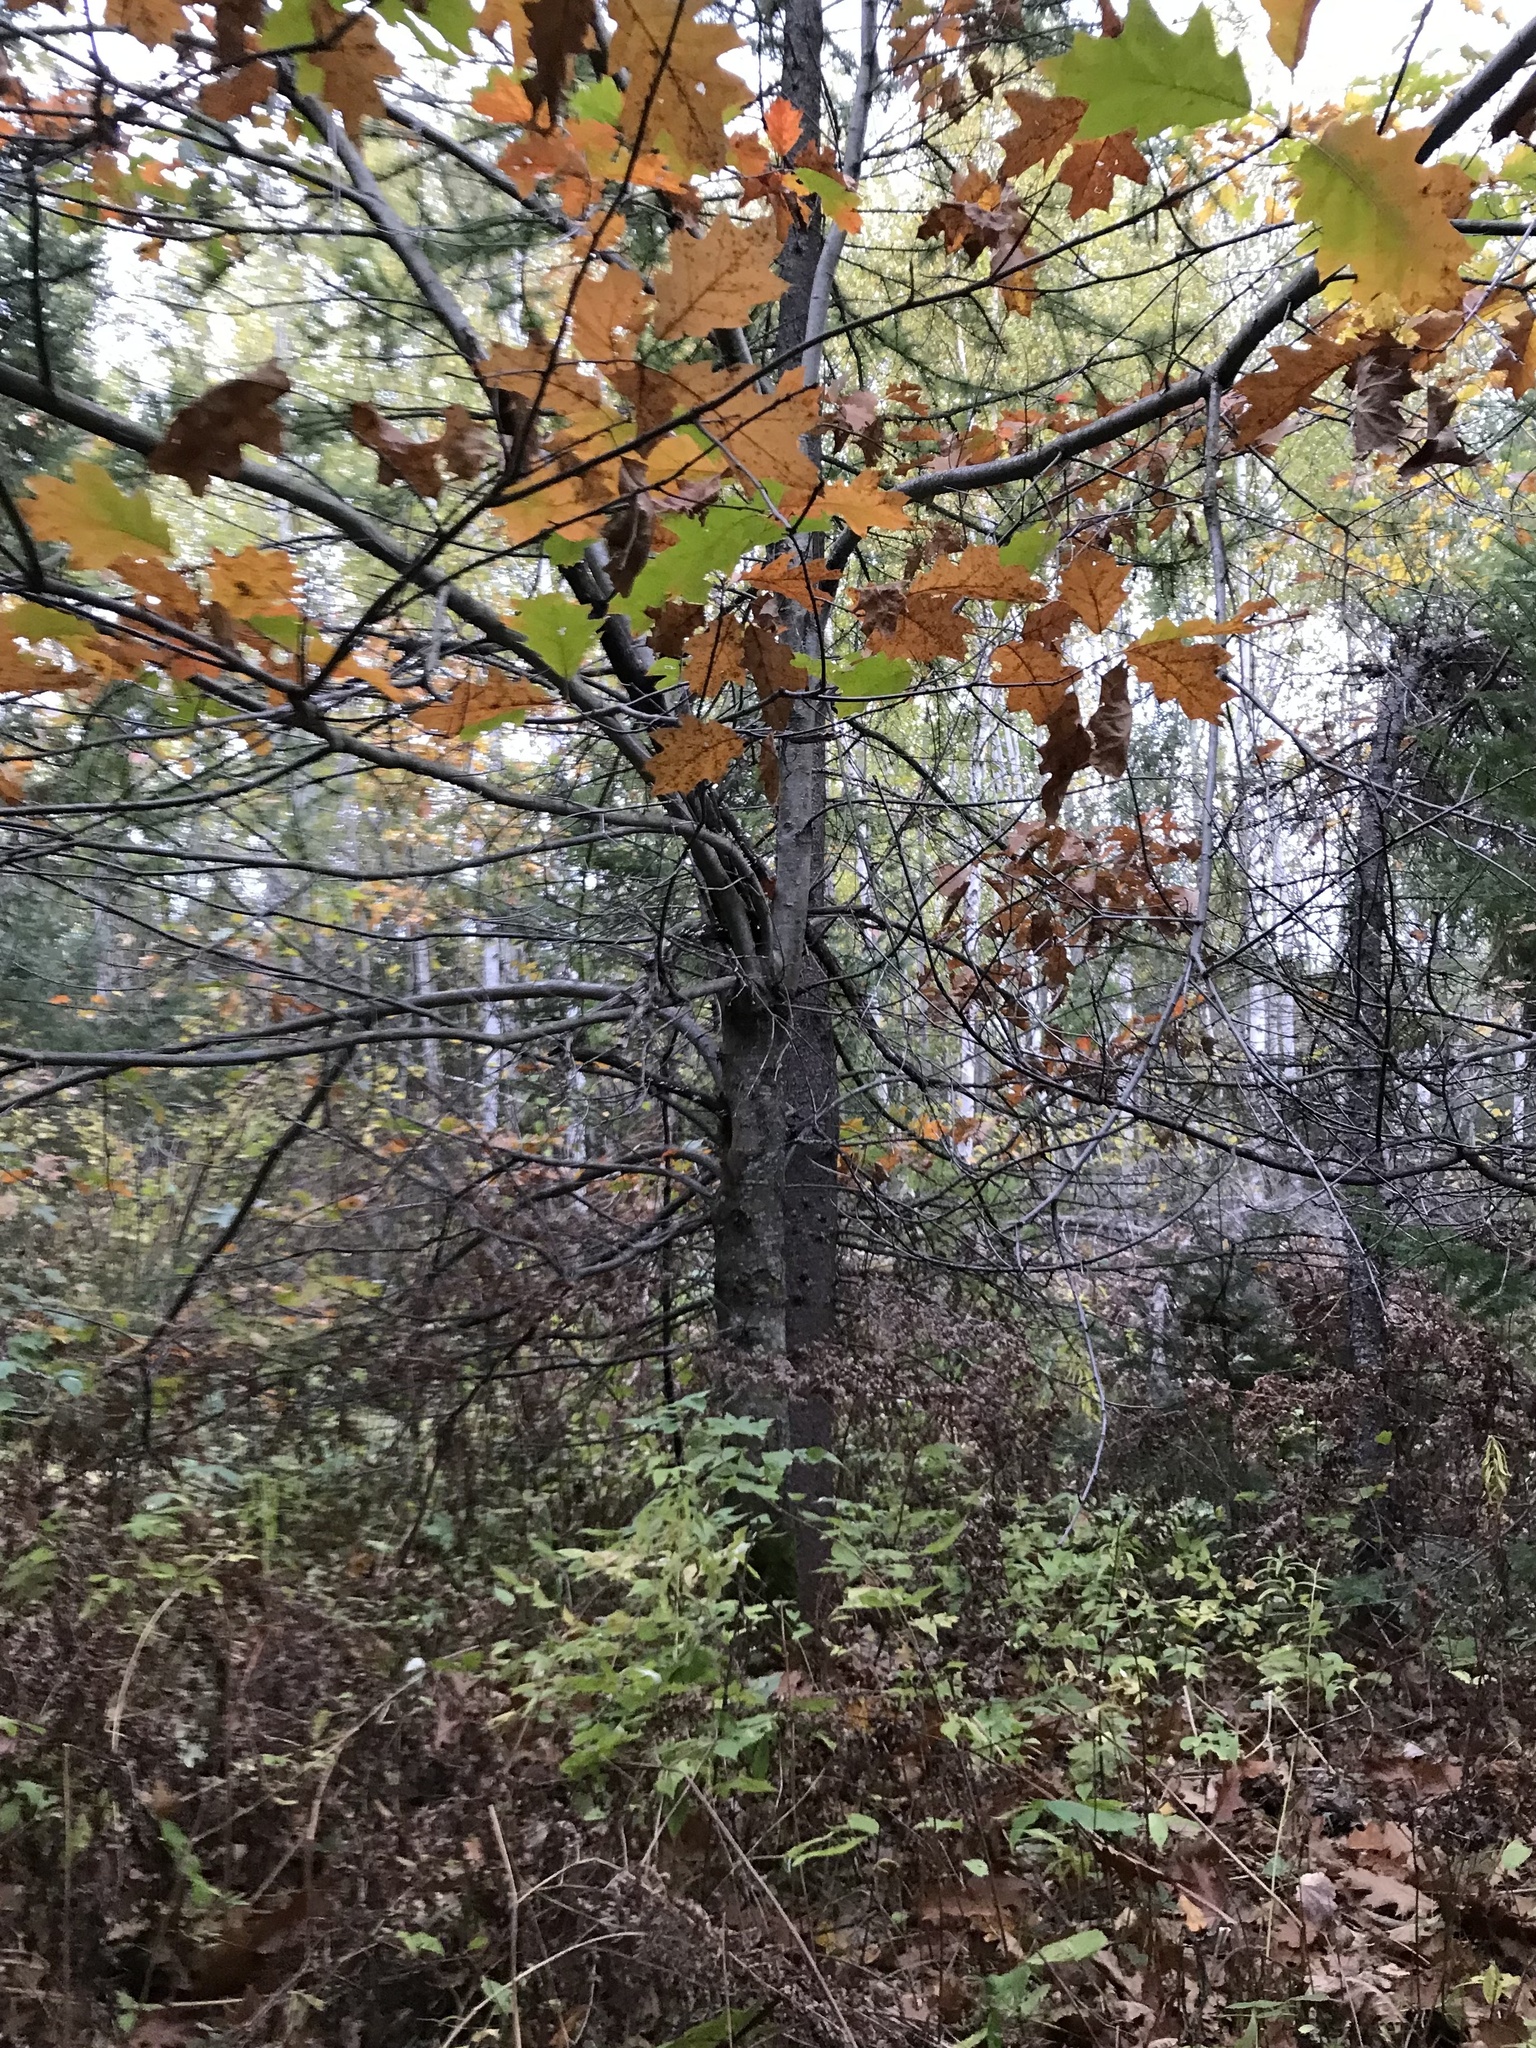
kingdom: Plantae
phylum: Tracheophyta
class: Magnoliopsida
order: Fagales
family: Fagaceae
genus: Quercus
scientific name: Quercus rubra
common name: Red oak
